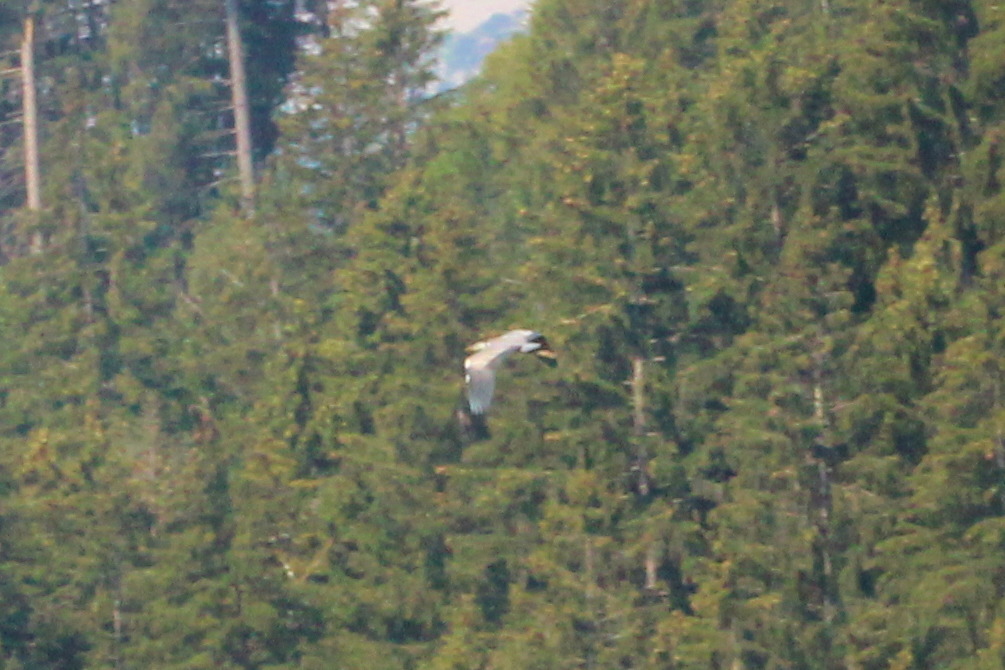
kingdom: Animalia
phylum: Chordata
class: Aves
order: Pelecaniformes
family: Ardeidae
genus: Ardea
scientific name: Ardea cinerea
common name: Grey heron
